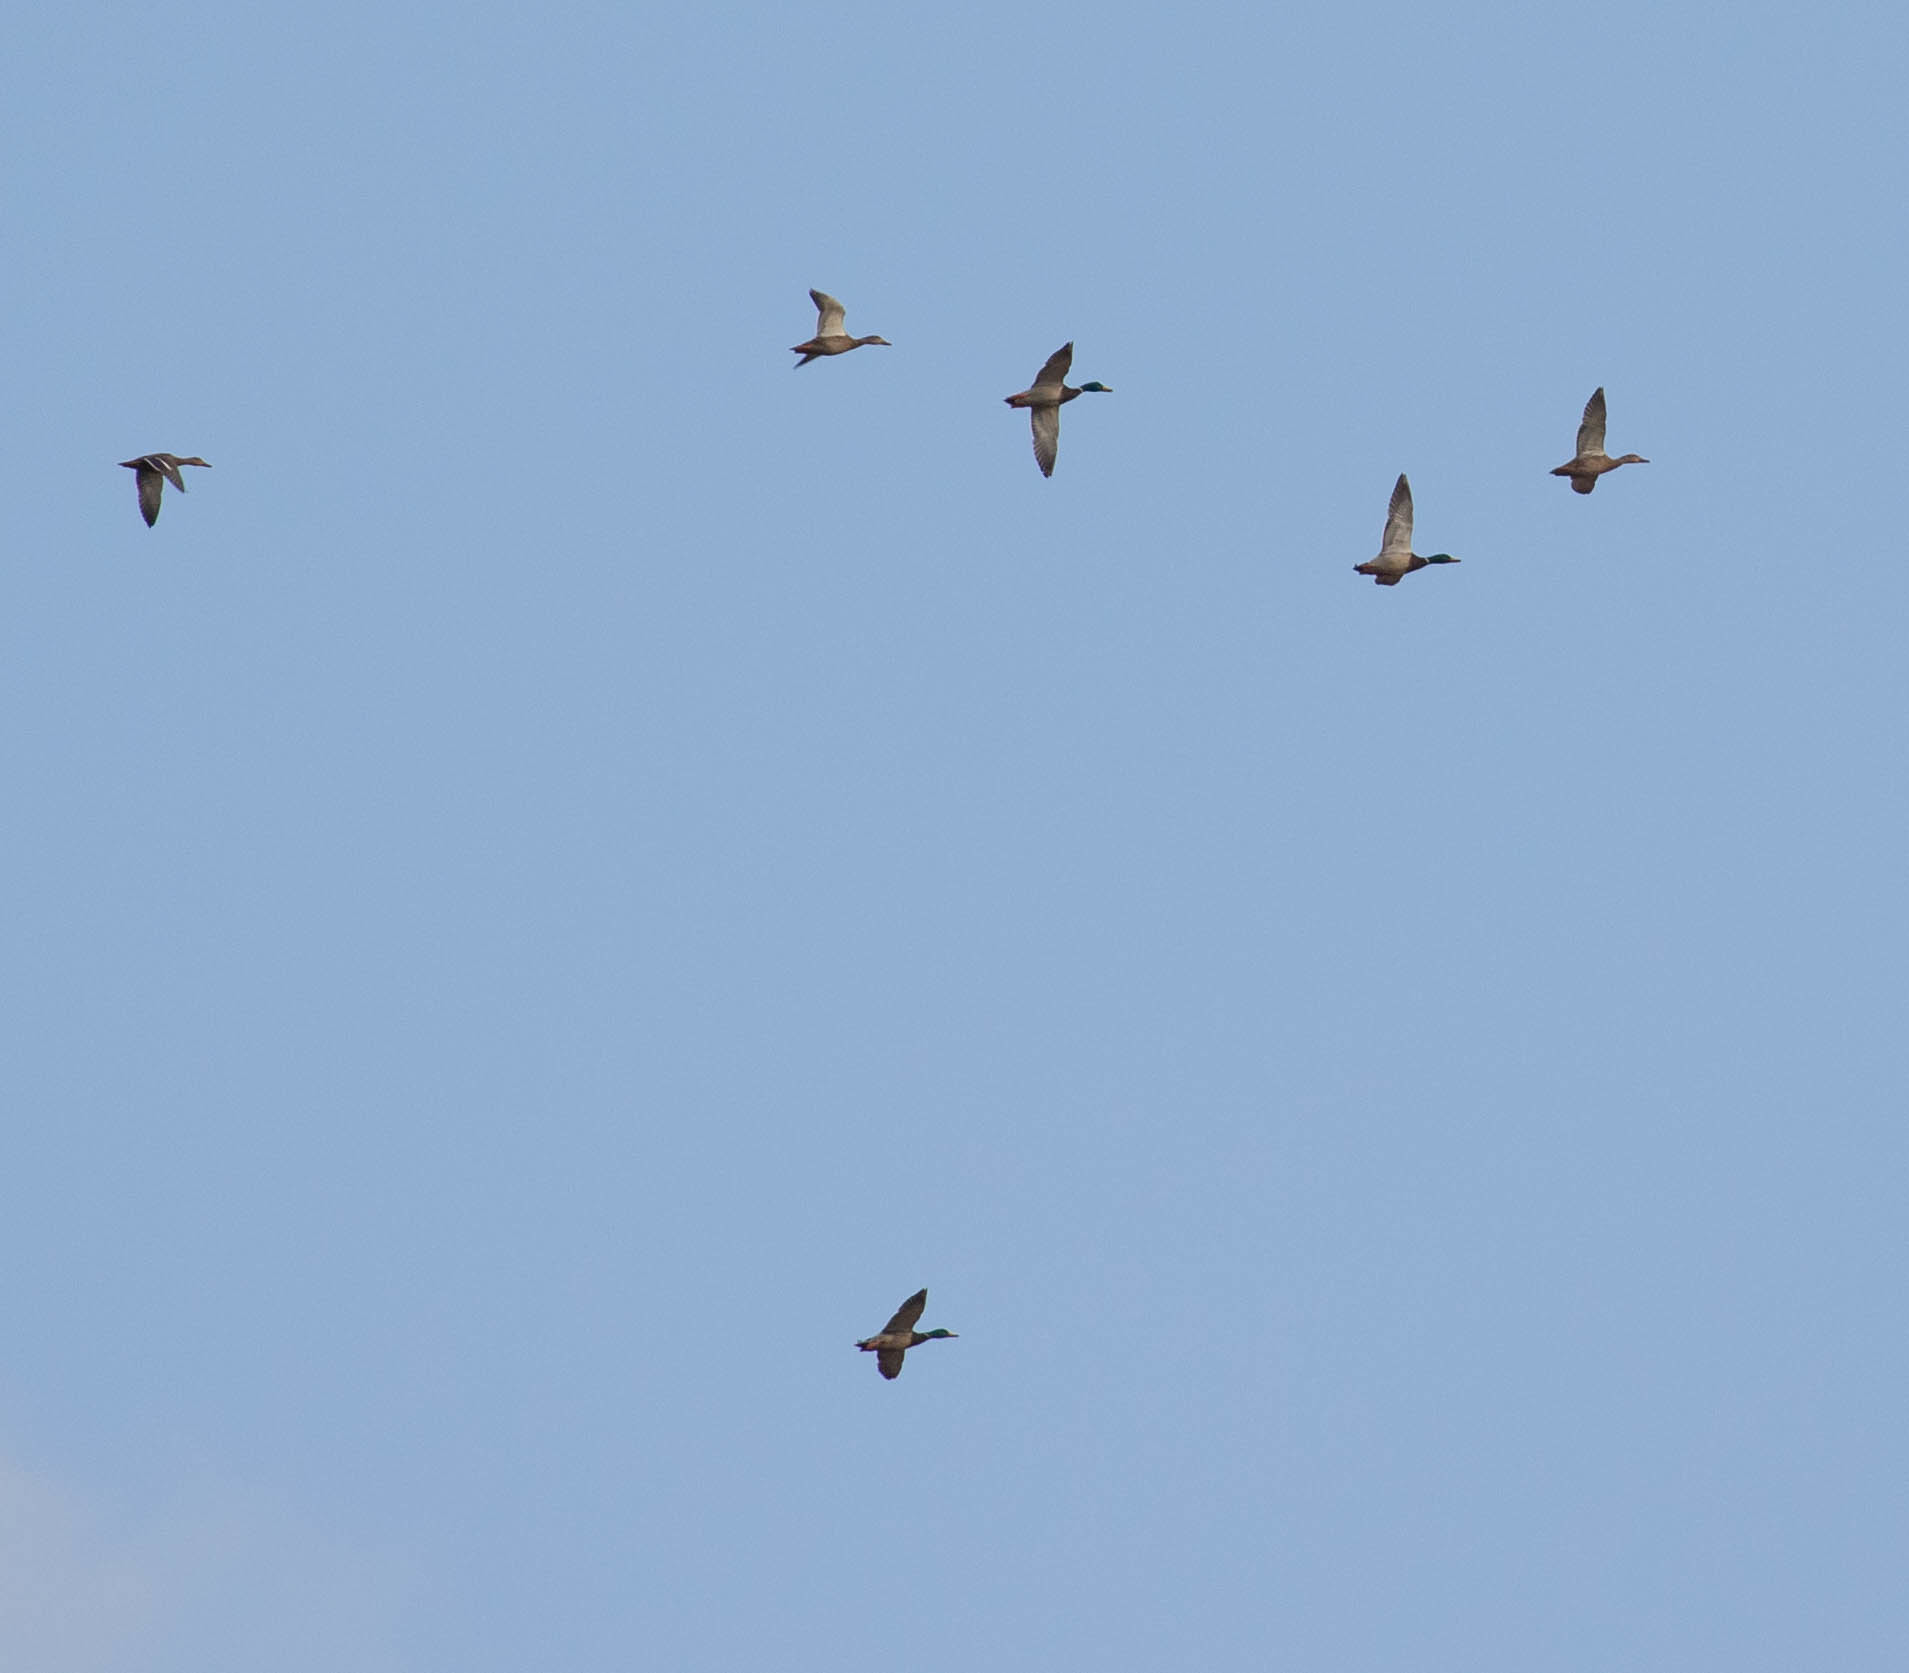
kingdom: Animalia
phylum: Chordata
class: Aves
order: Anseriformes
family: Anatidae
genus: Anas
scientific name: Anas platyrhynchos
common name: Mallard
